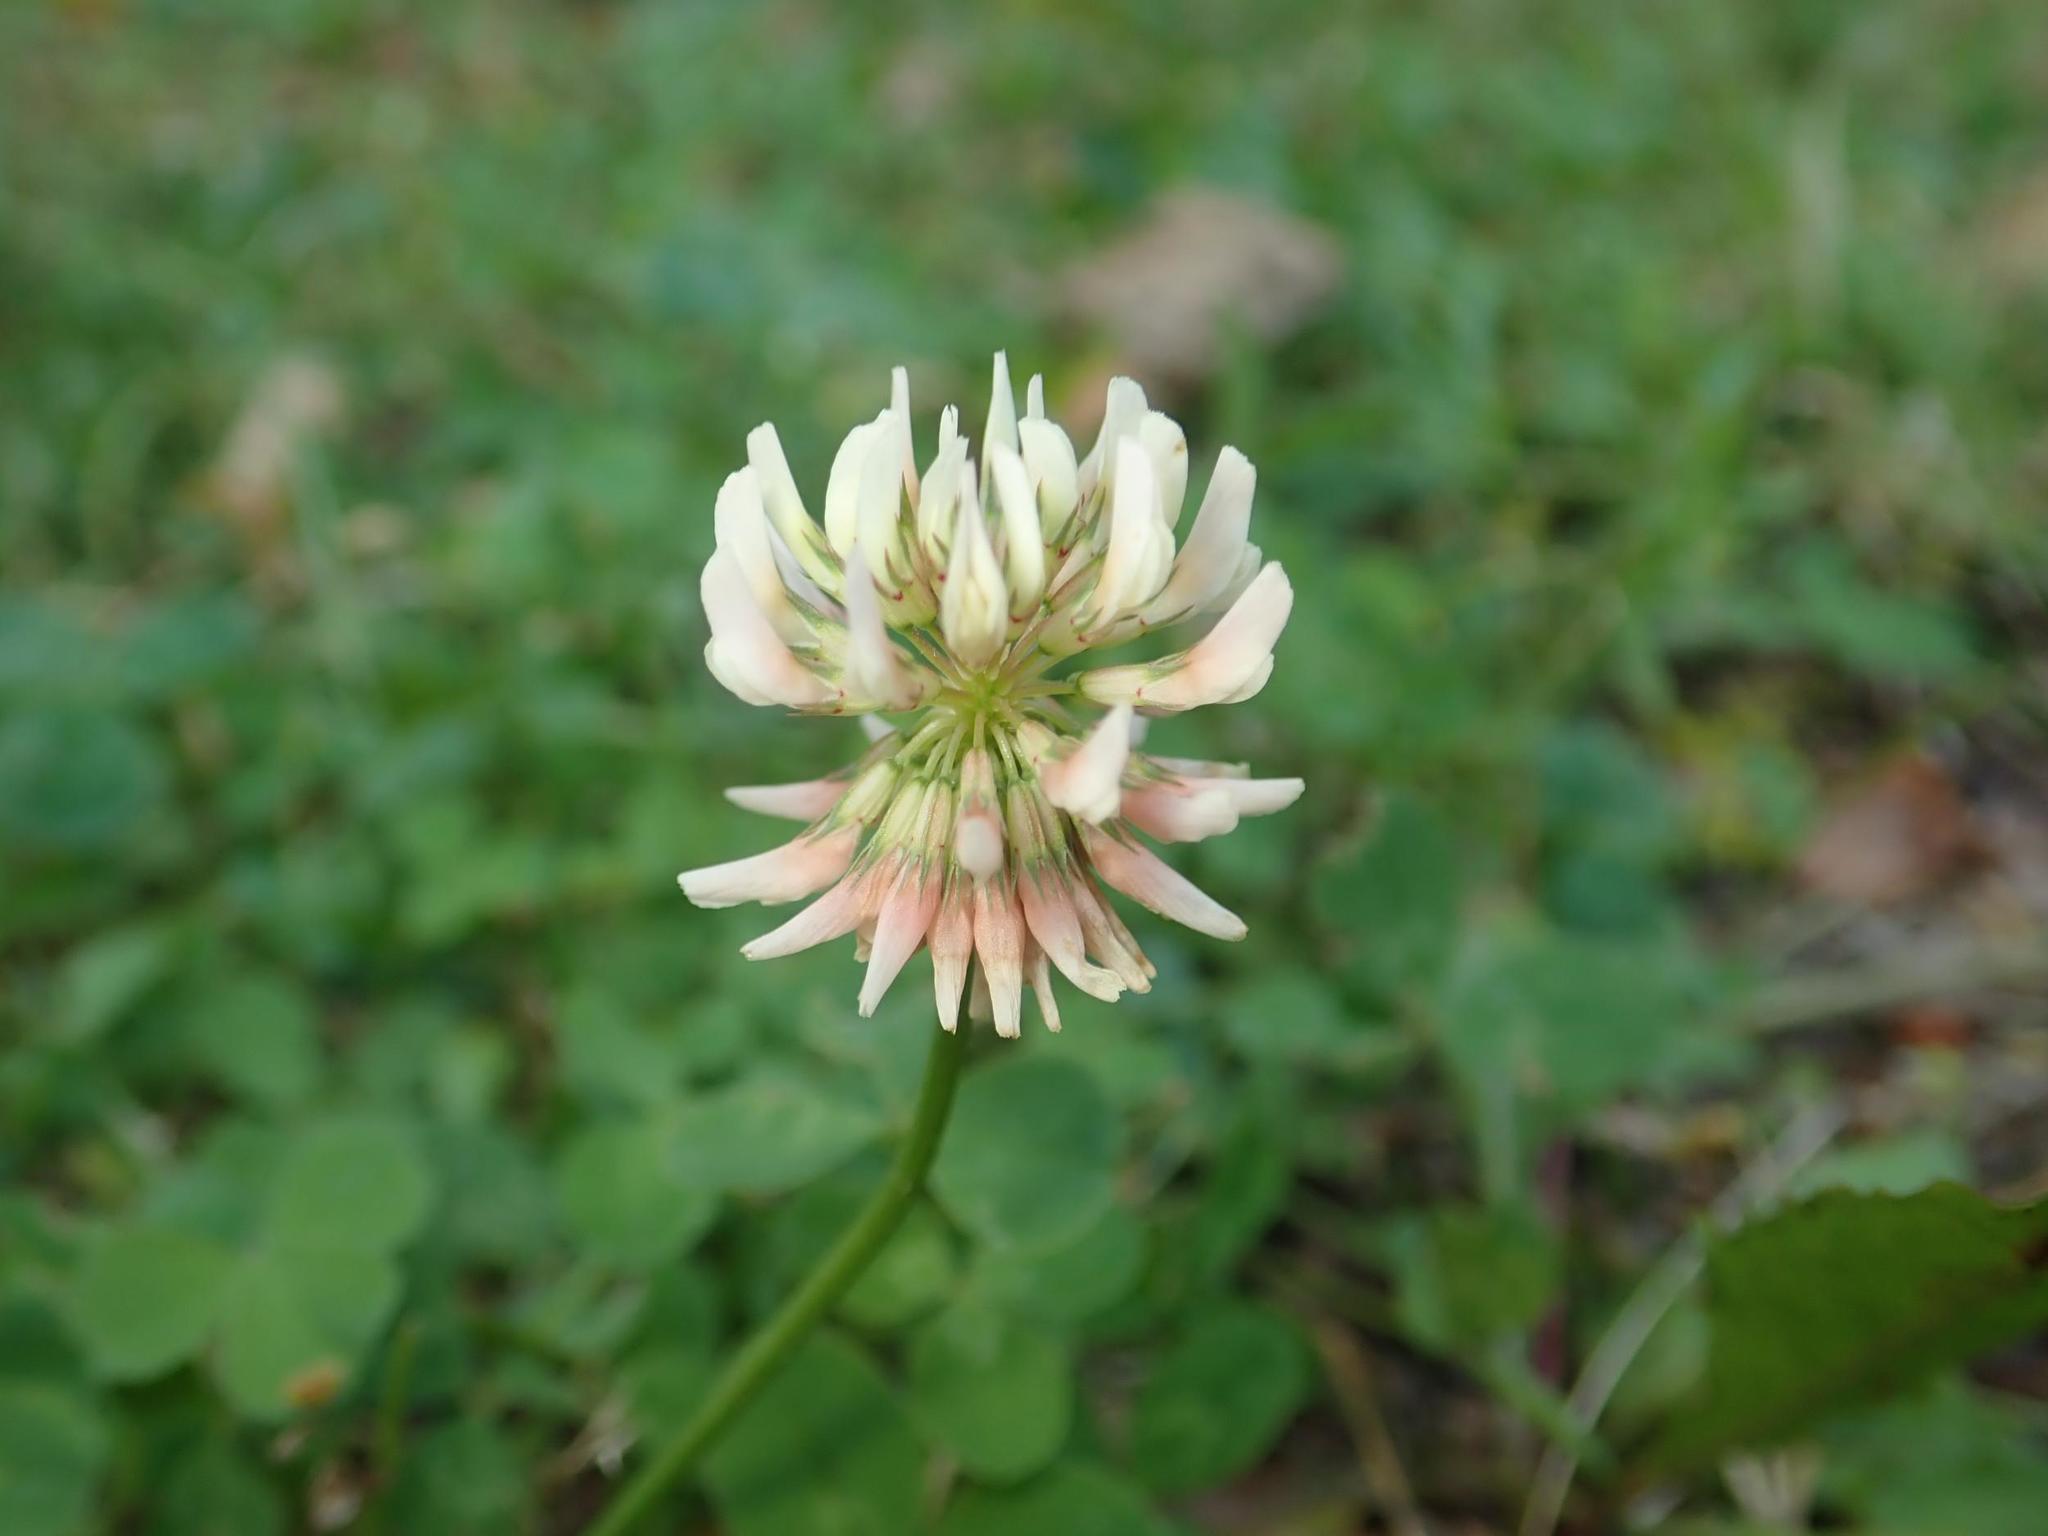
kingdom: Plantae
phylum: Tracheophyta
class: Magnoliopsida
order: Fabales
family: Fabaceae
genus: Trifolium
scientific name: Trifolium repens
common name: White clover
